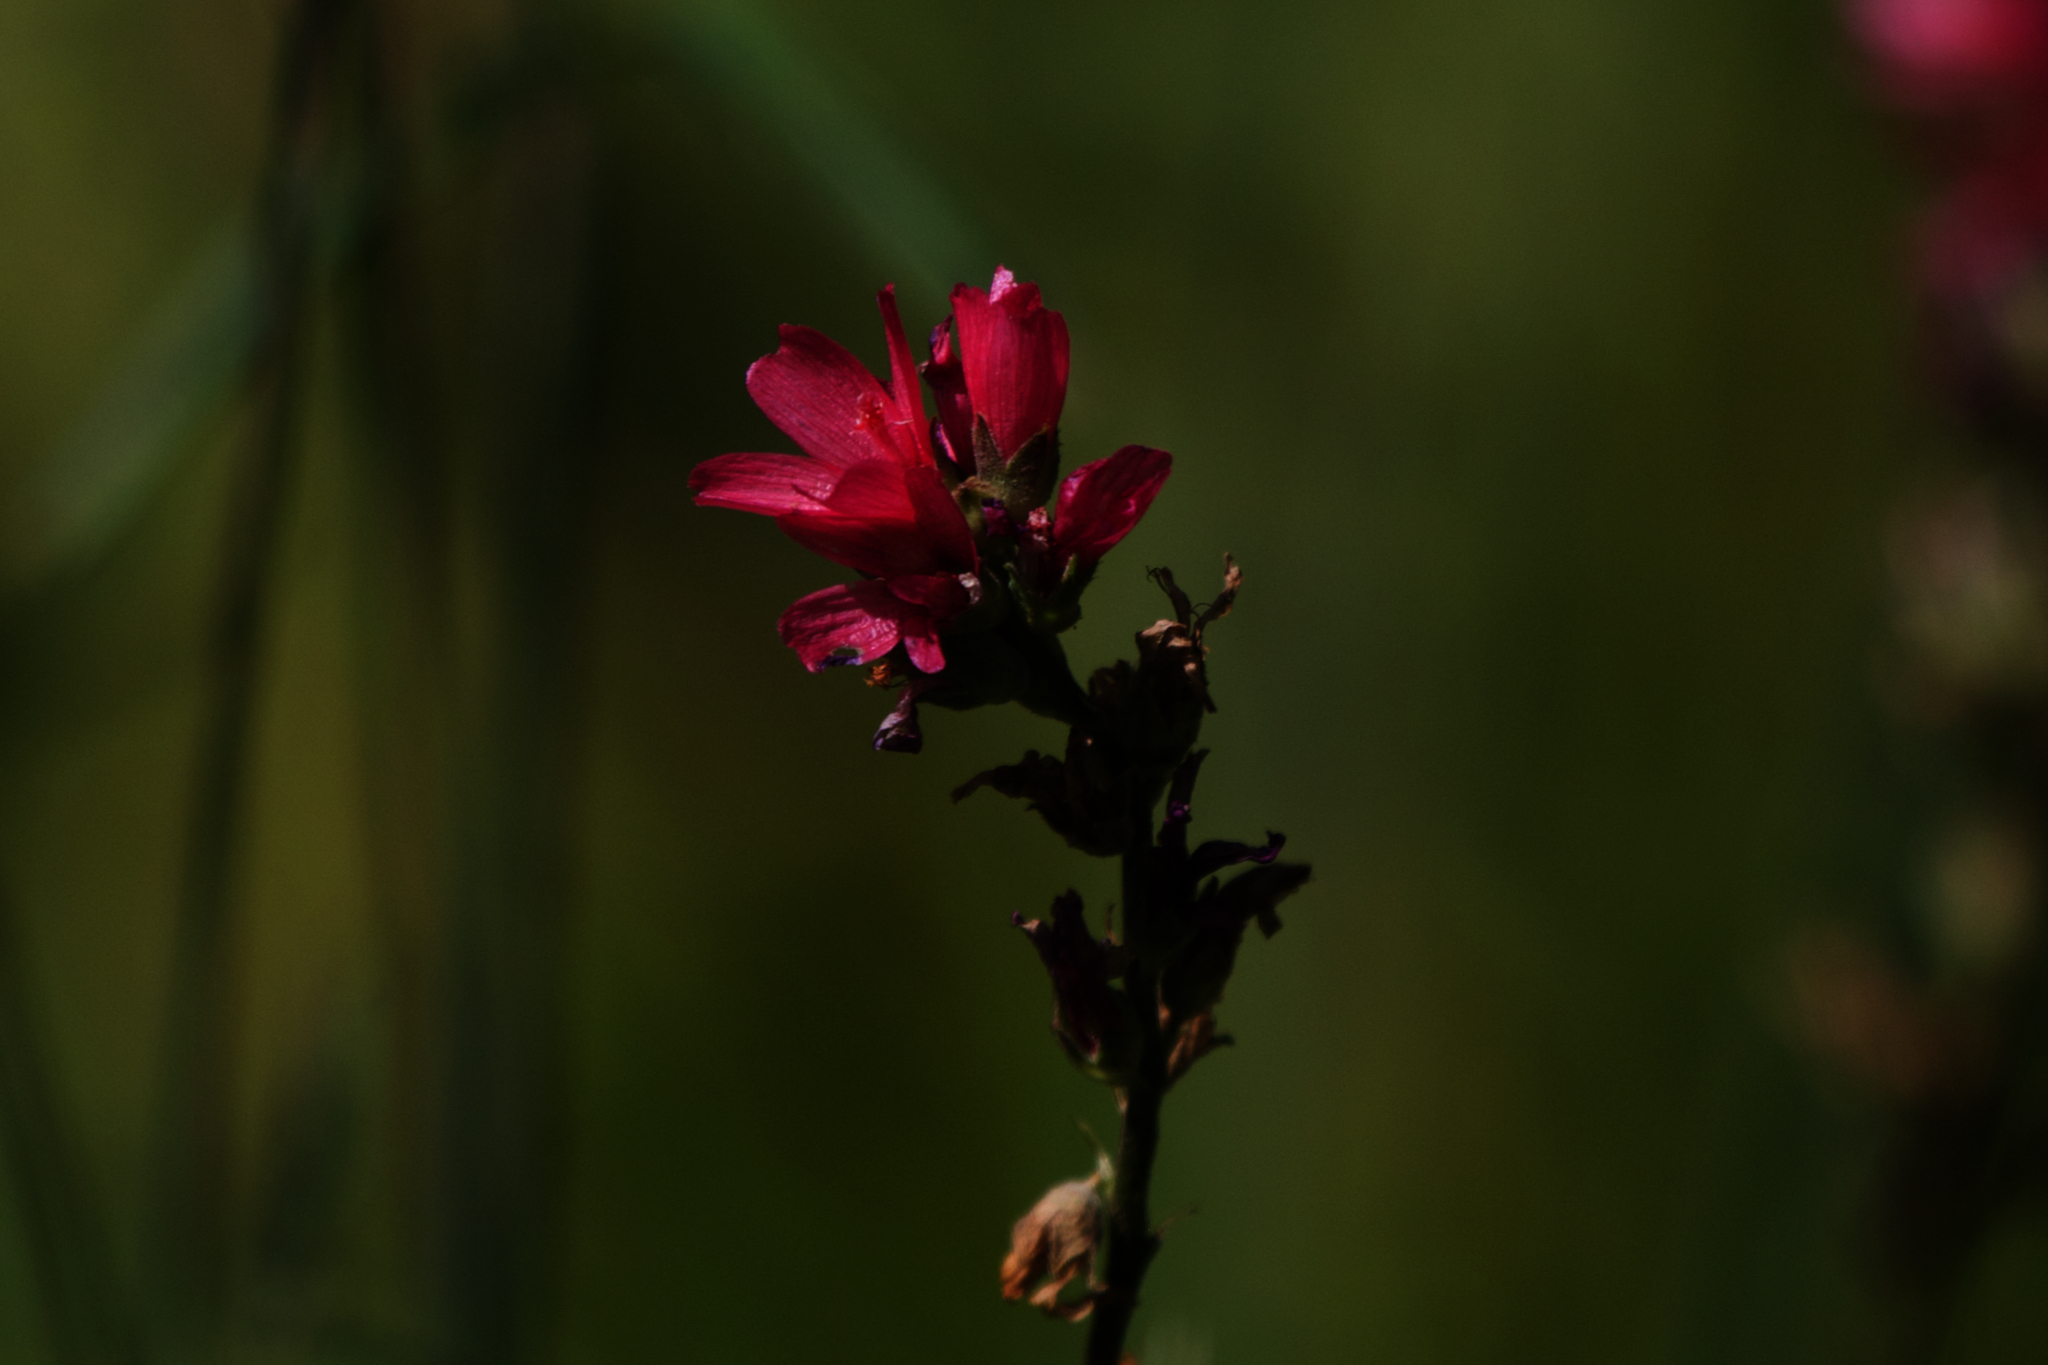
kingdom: Plantae
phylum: Tracheophyta
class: Magnoliopsida
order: Malvales
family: Malvaceae
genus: Sidalcea
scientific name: Sidalcea oregana
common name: Oregon checker-mallow
